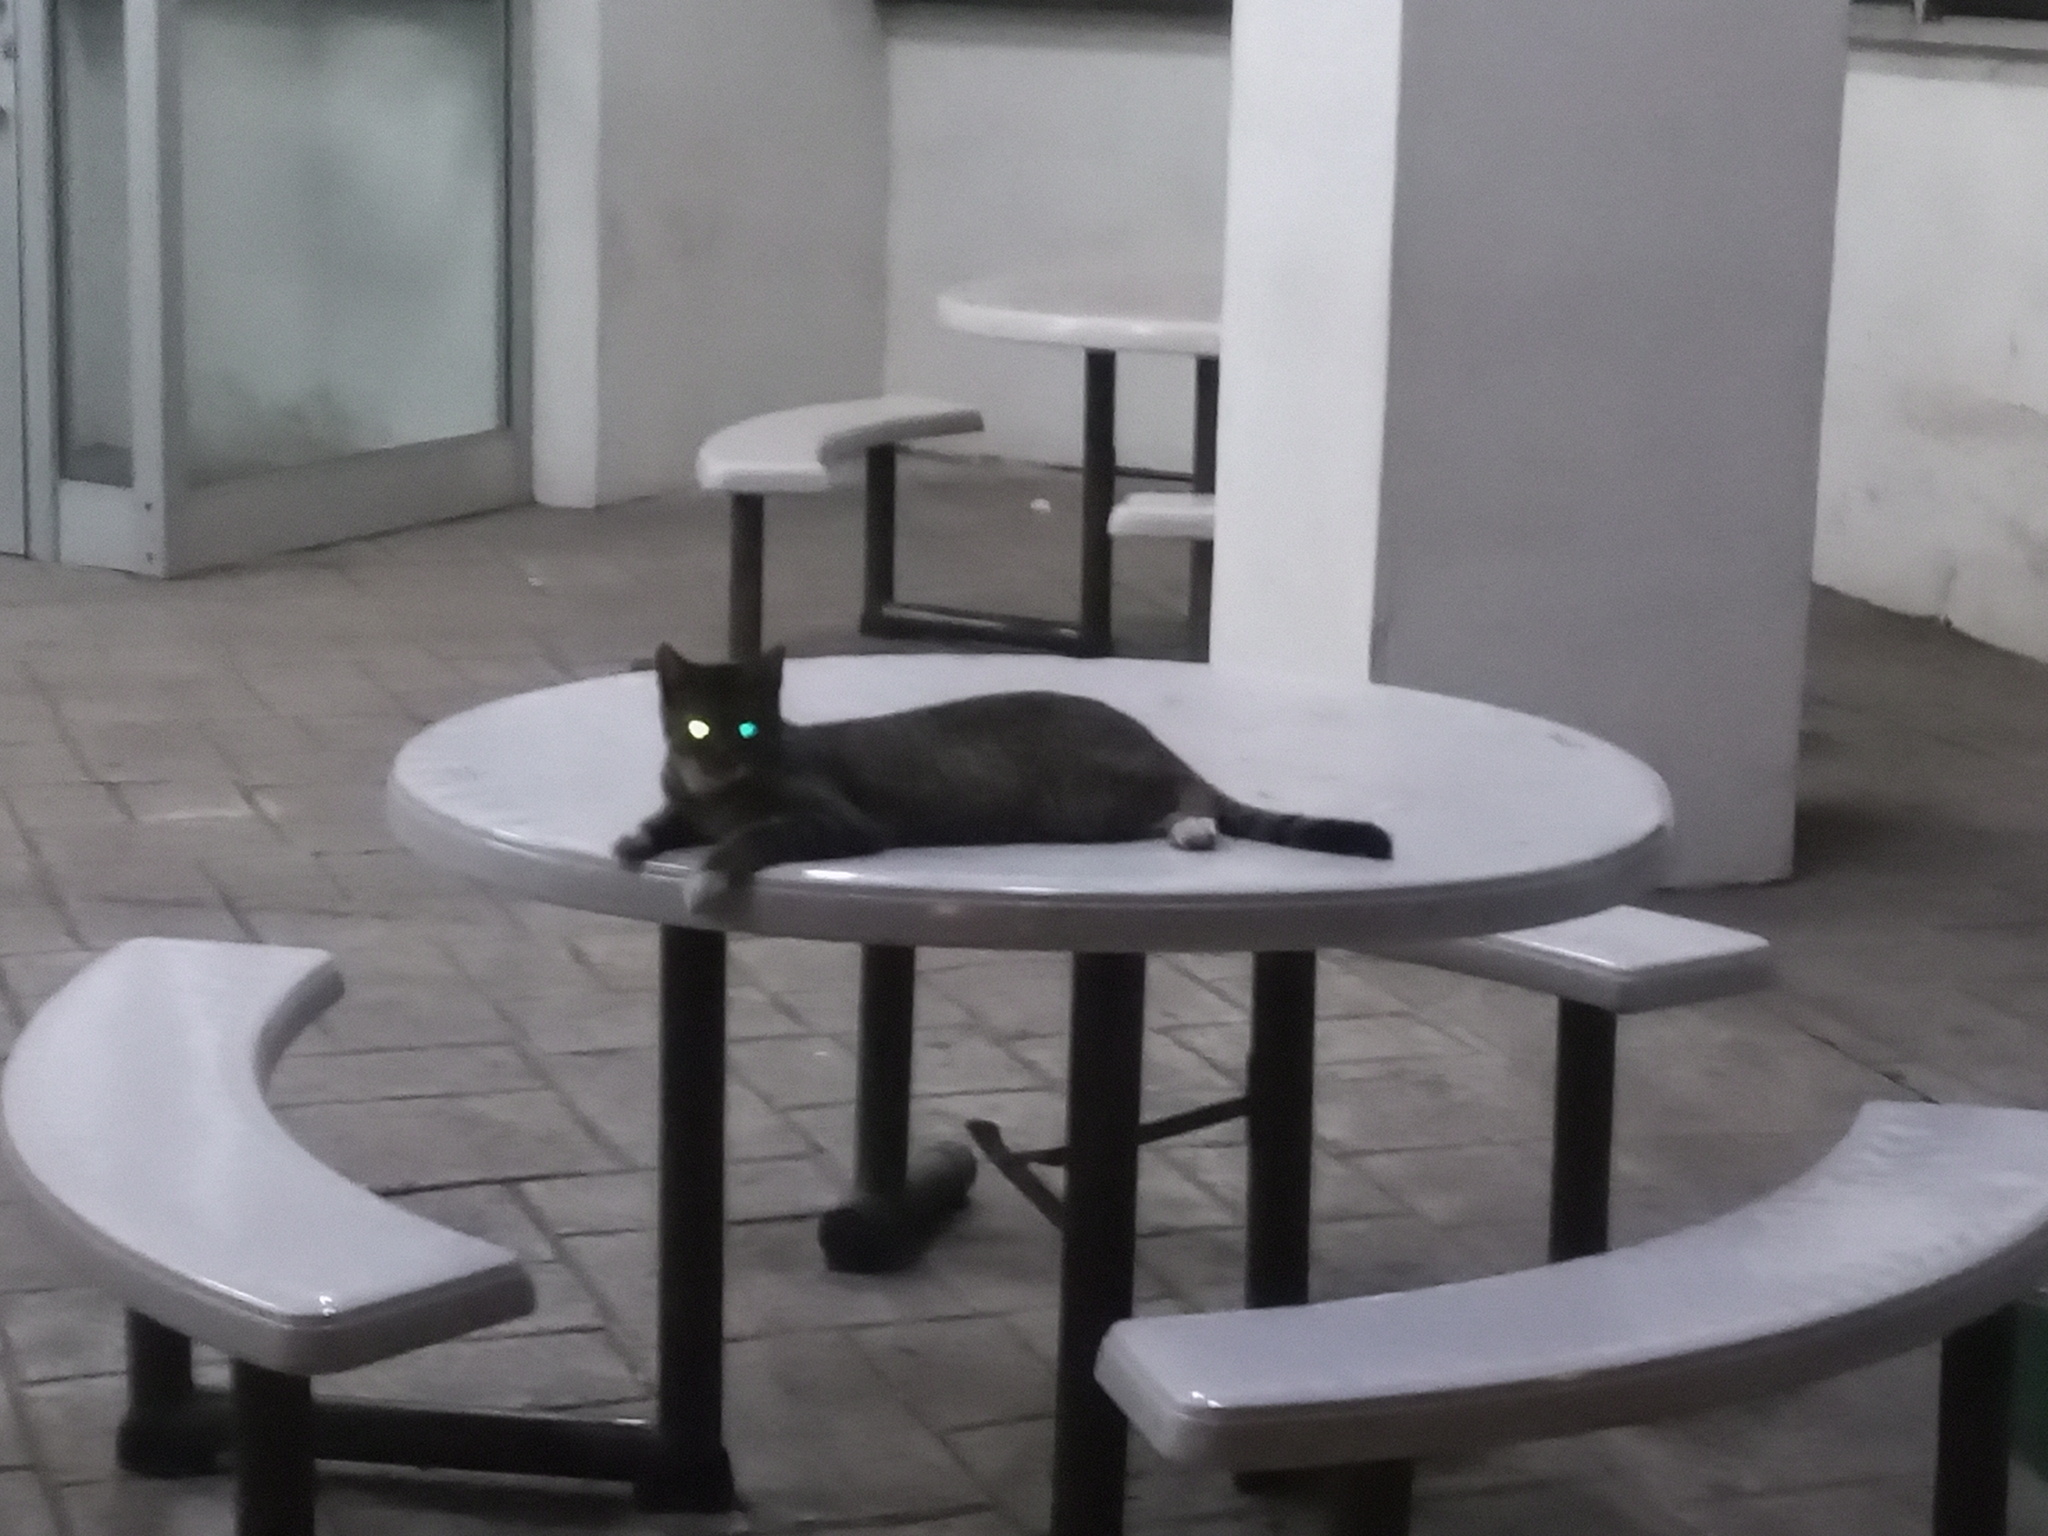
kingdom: Animalia
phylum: Chordata
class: Mammalia
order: Carnivora
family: Felidae
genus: Felis
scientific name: Felis catus
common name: Domestic cat
